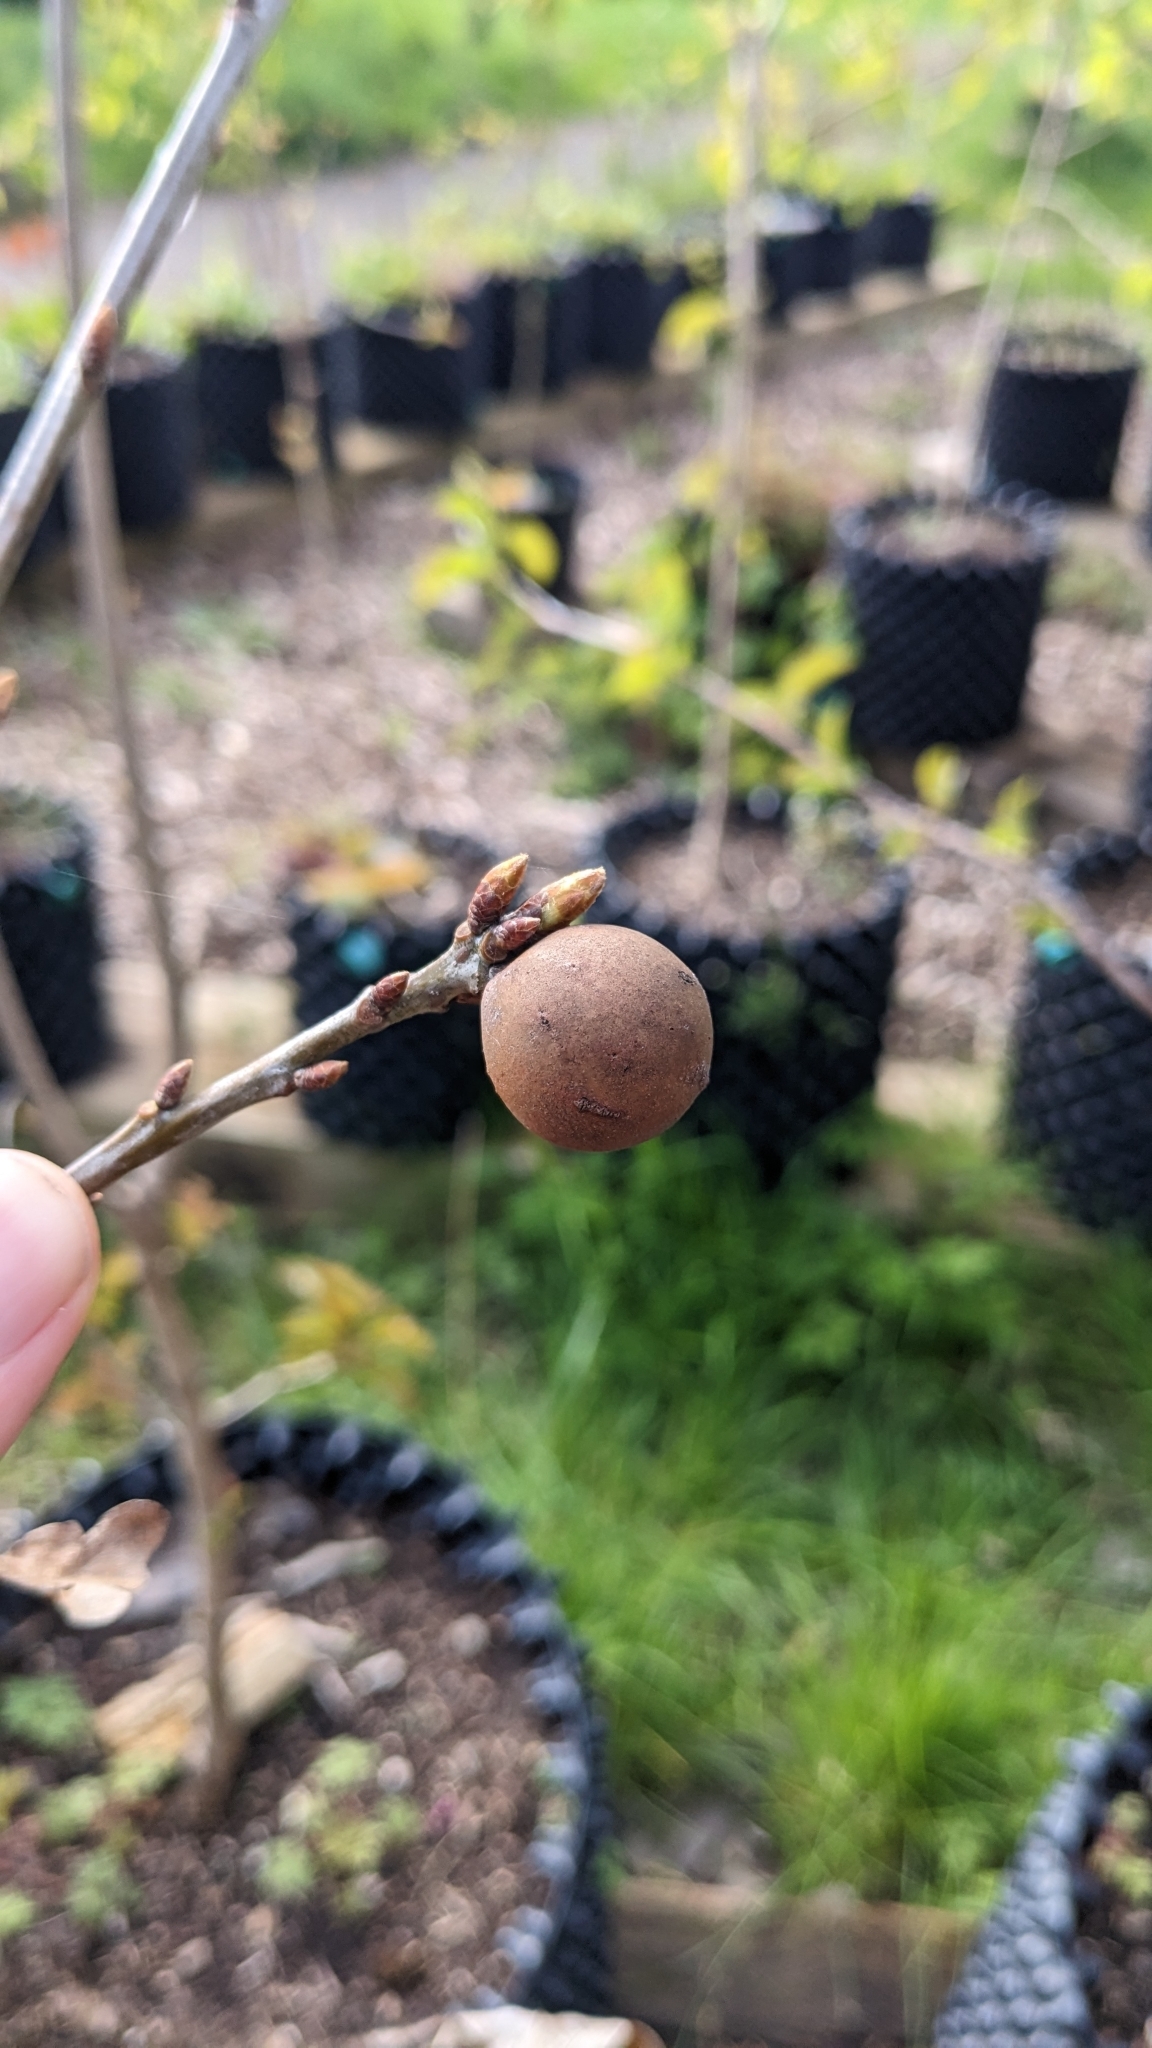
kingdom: Animalia
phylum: Arthropoda
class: Insecta
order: Hymenoptera
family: Cynipidae
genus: Andricus
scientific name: Andricus kollari
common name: Marble gall
